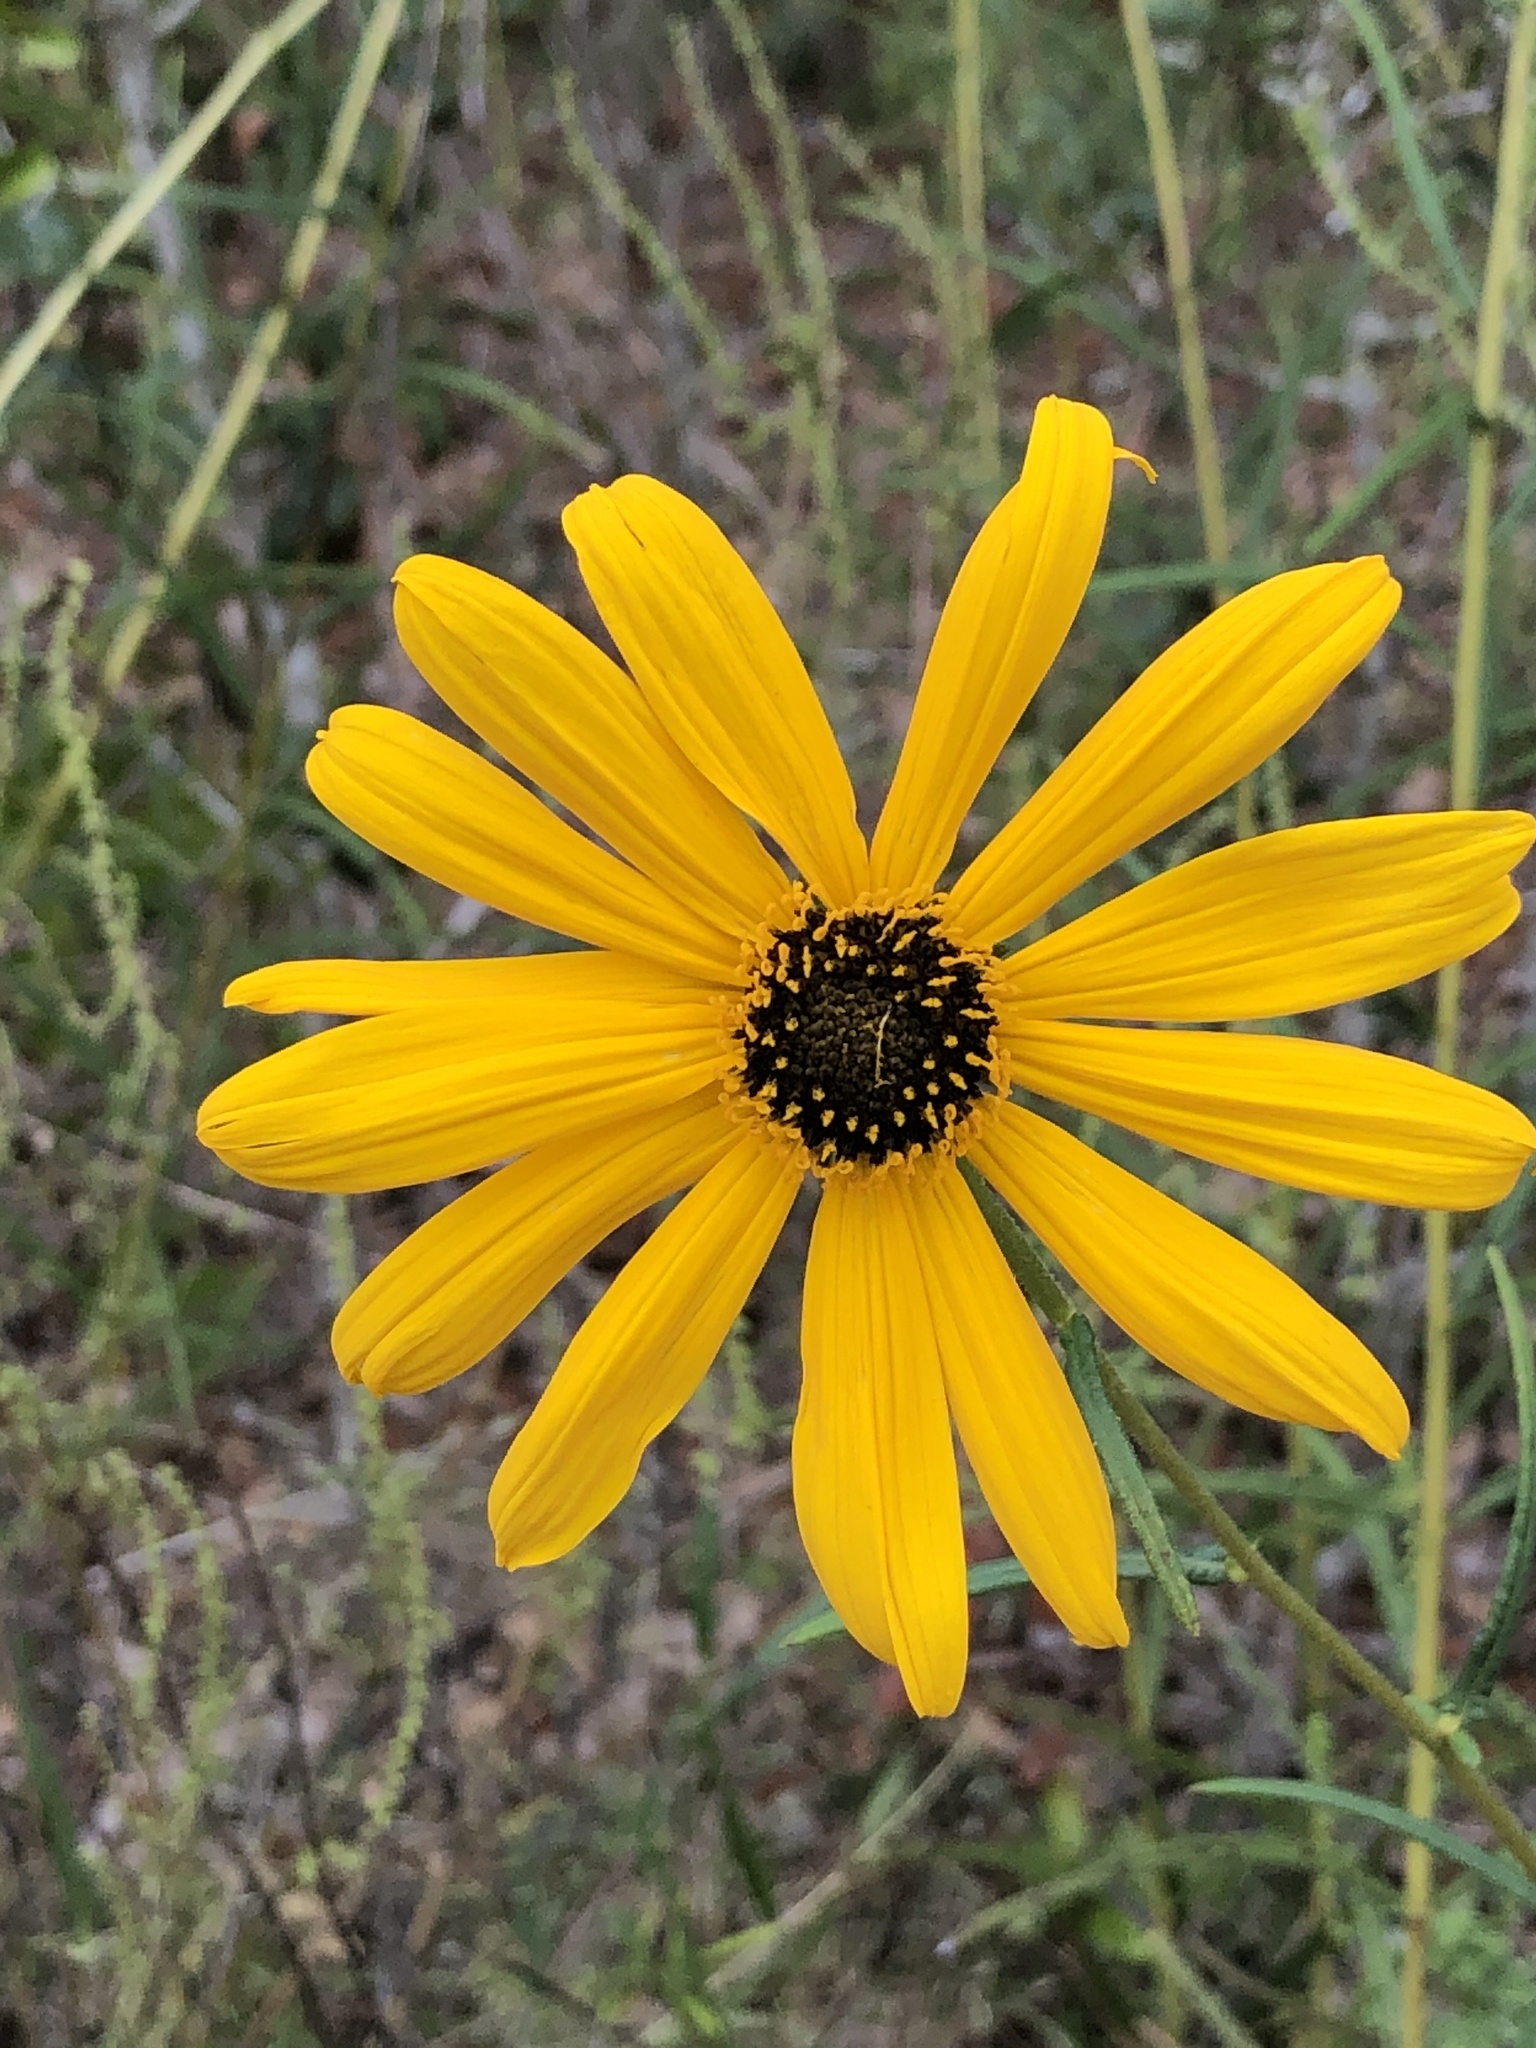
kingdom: Plantae
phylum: Tracheophyta
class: Magnoliopsida
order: Asterales
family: Asteraceae
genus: Helianthus
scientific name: Helianthus angustifolius
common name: Swamp sunflower
